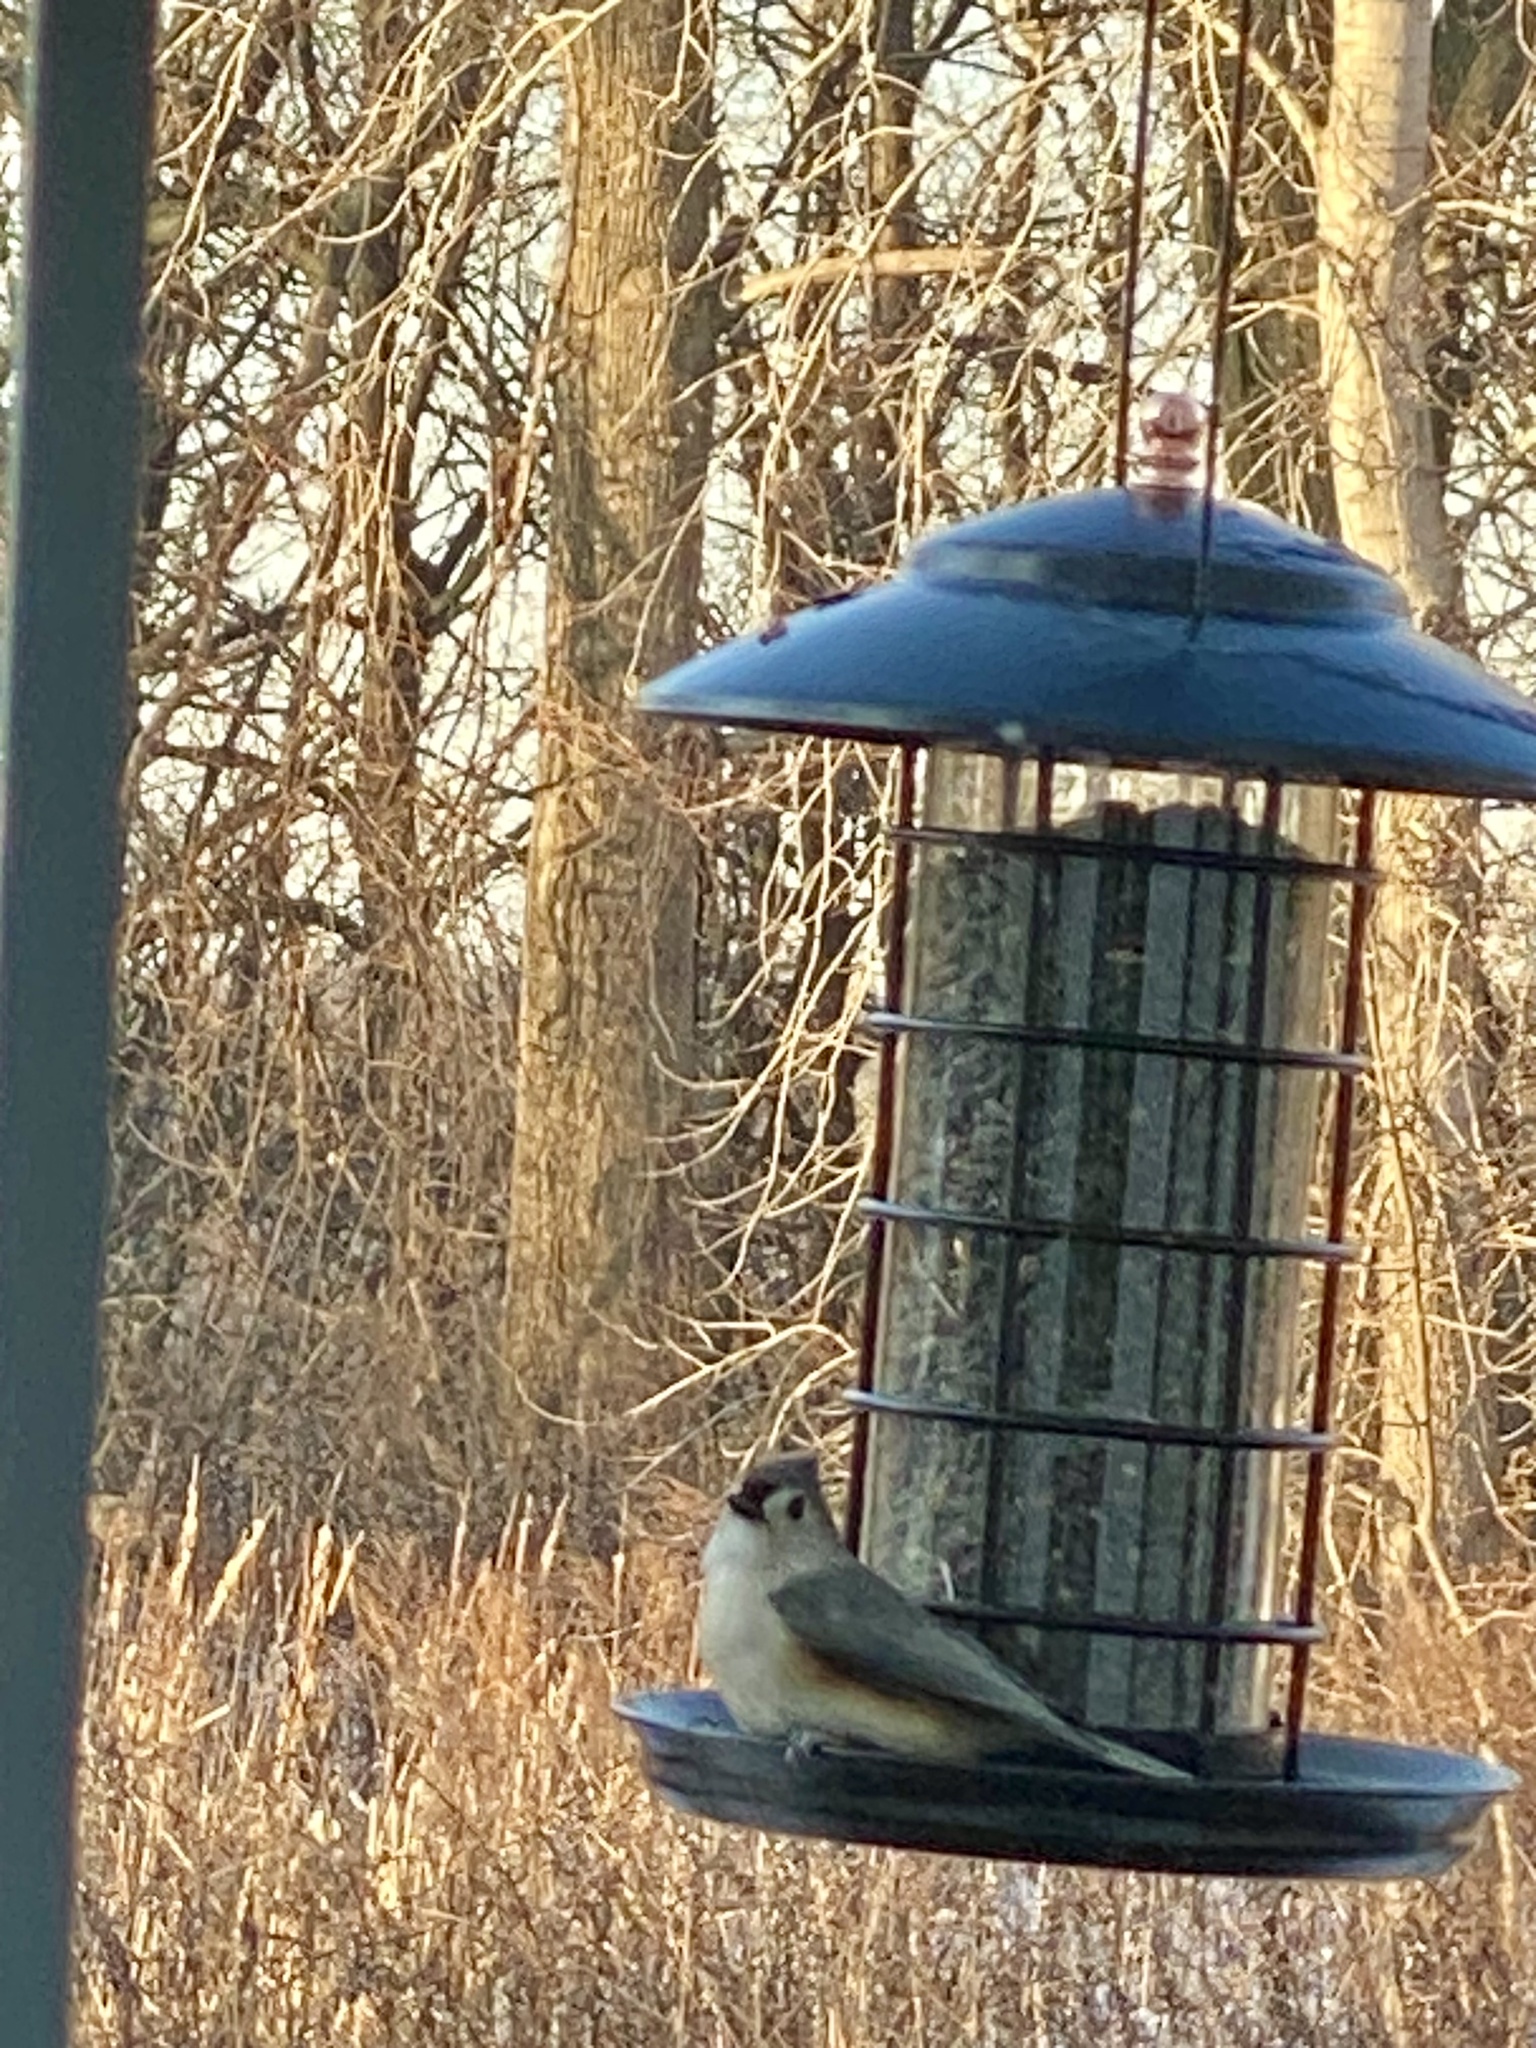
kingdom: Animalia
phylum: Chordata
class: Aves
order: Passeriformes
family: Paridae
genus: Baeolophus
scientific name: Baeolophus bicolor
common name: Tufted titmouse
